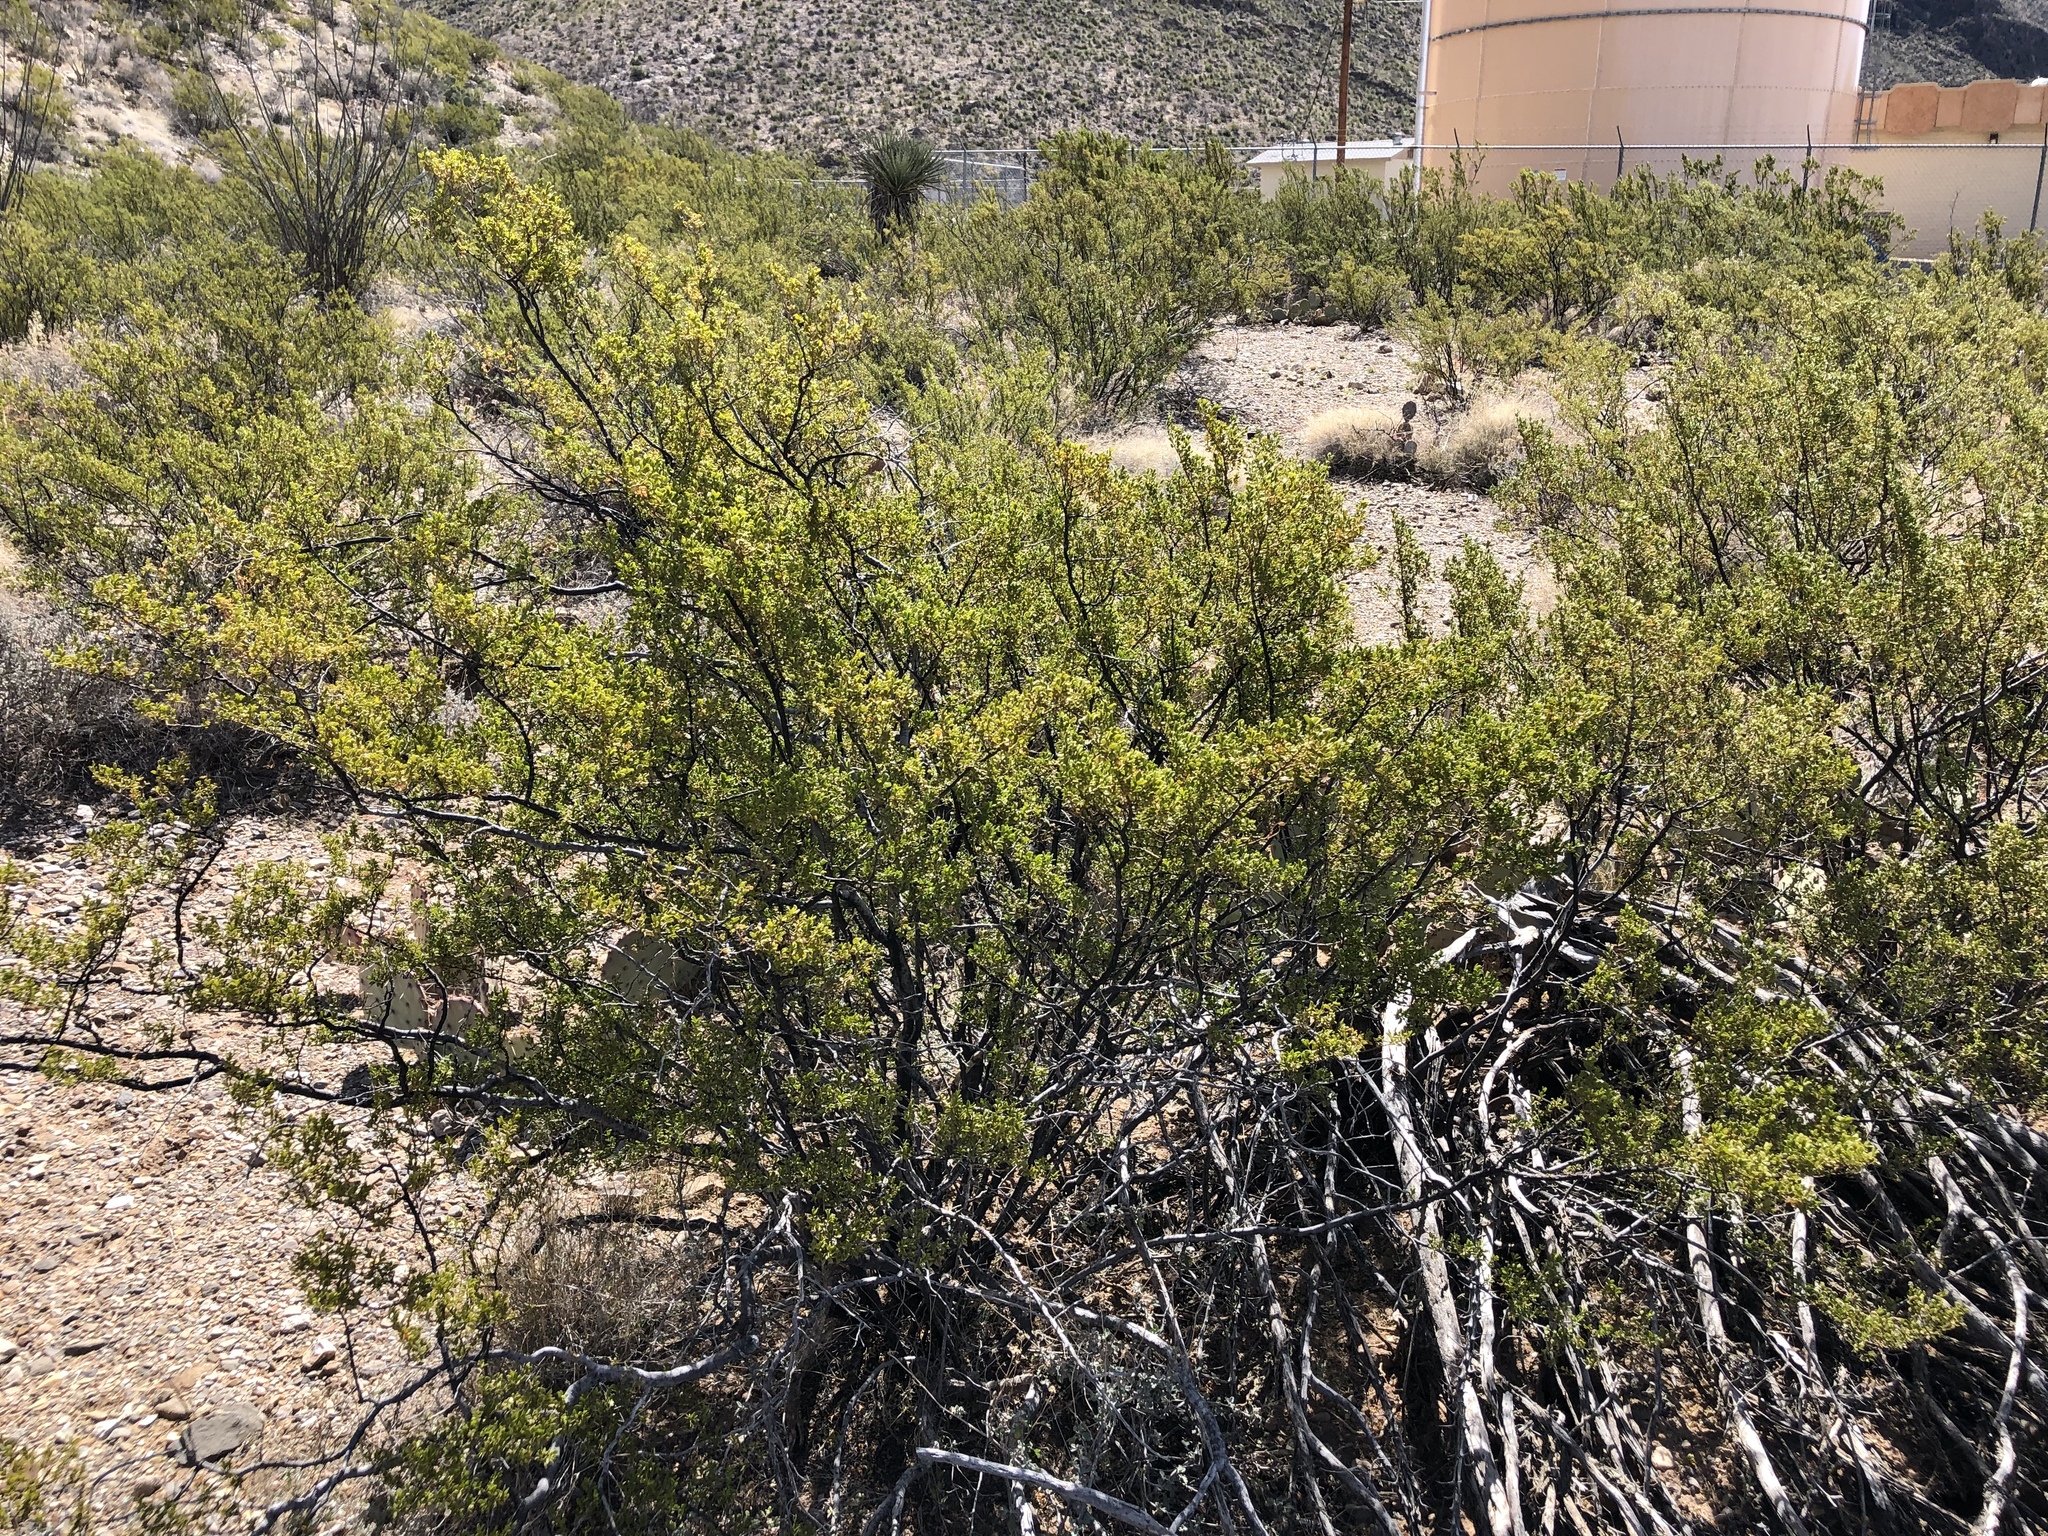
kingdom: Plantae
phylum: Tracheophyta
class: Magnoliopsida
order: Zygophyllales
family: Zygophyllaceae
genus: Larrea
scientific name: Larrea tridentata
